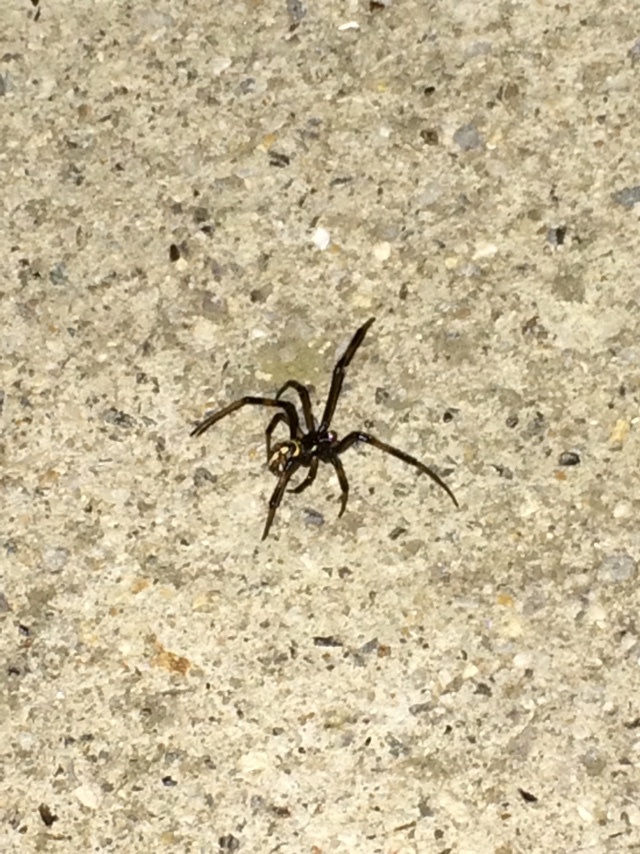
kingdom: Animalia
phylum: Arthropoda
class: Arachnida
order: Araneae
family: Theridiidae
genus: Latrodectus
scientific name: Latrodectus hesperus
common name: Western black widow
